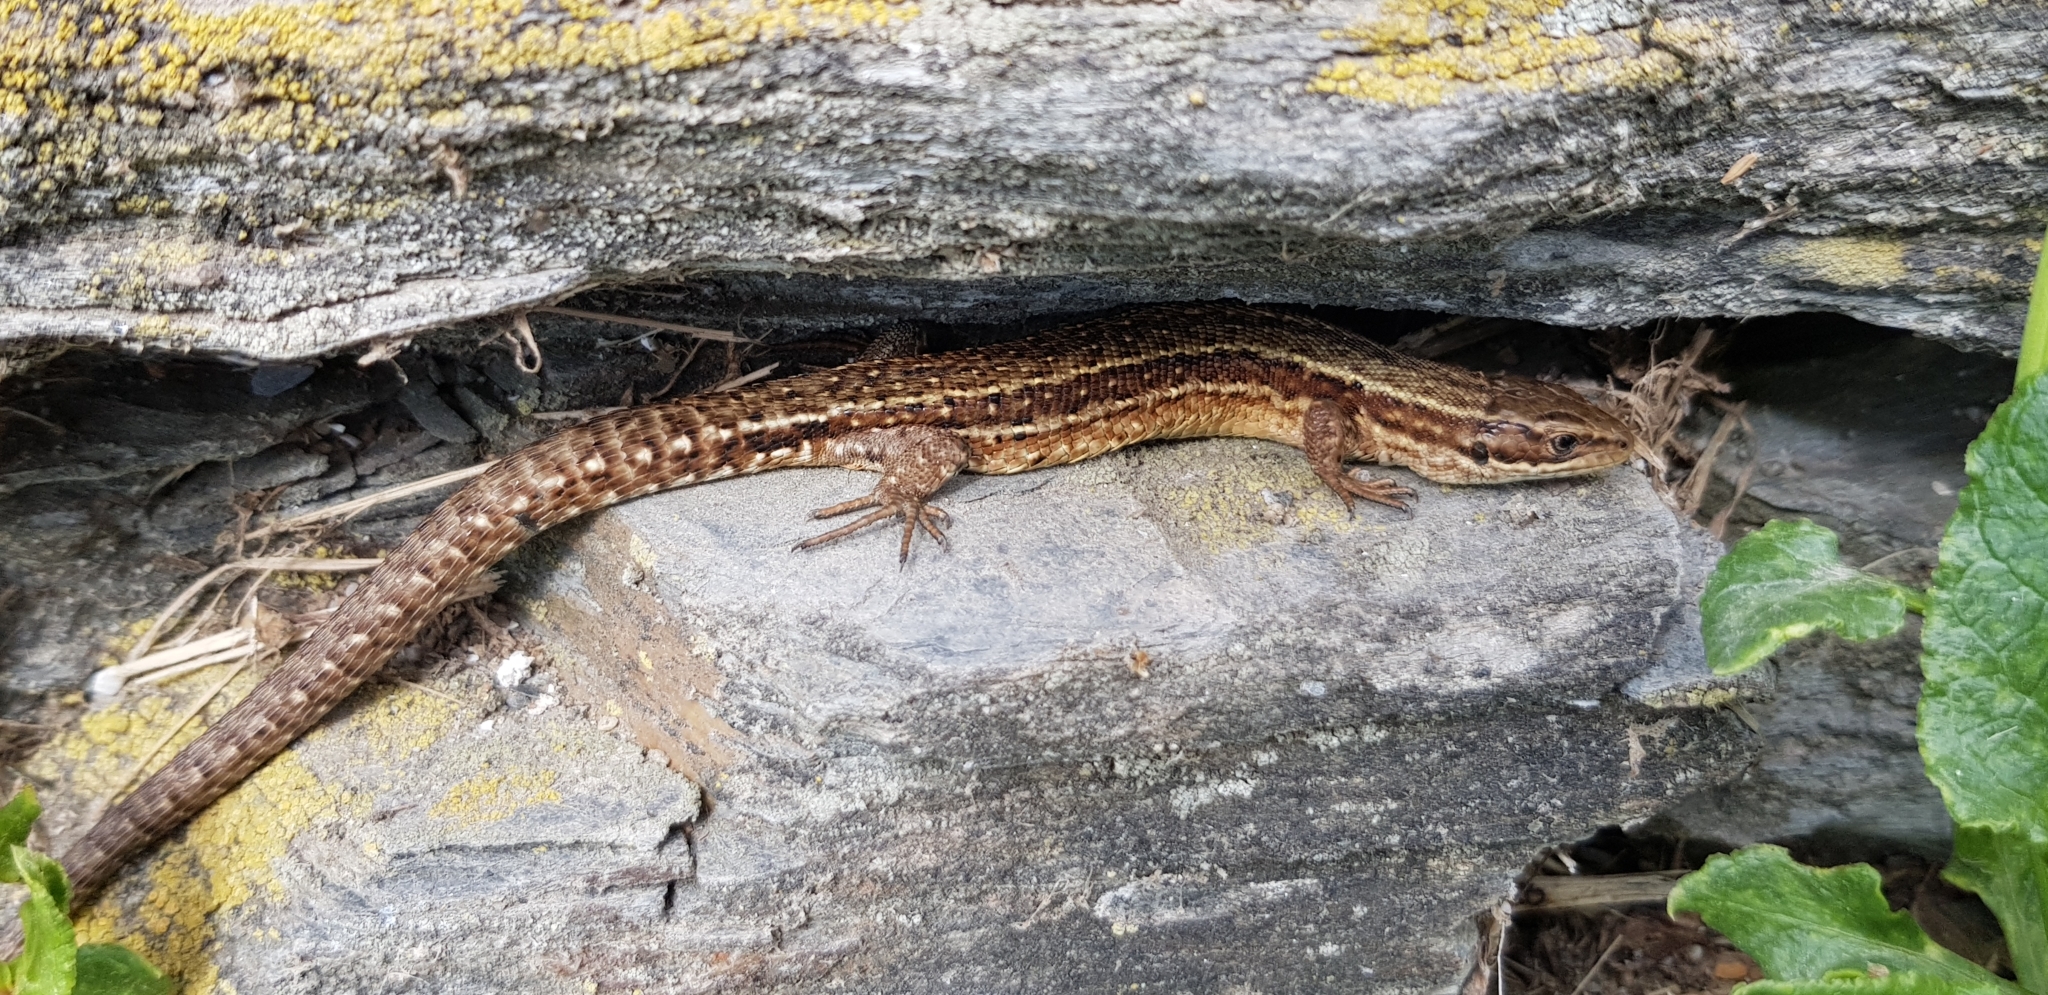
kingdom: Animalia
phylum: Chordata
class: Squamata
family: Lacertidae
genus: Zootoca
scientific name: Zootoca vivipara
